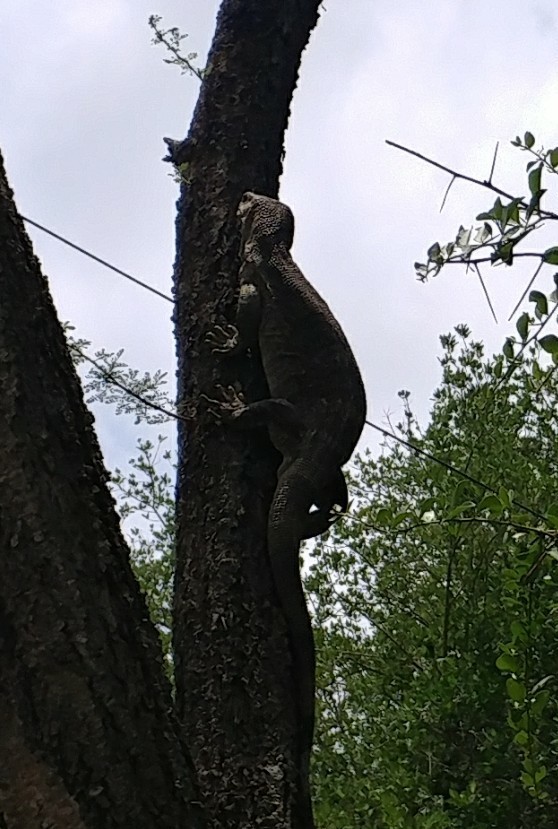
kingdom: Animalia
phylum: Chordata
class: Squamata
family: Varanidae
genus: Varanus
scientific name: Varanus albigularis
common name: White-throated monitor
